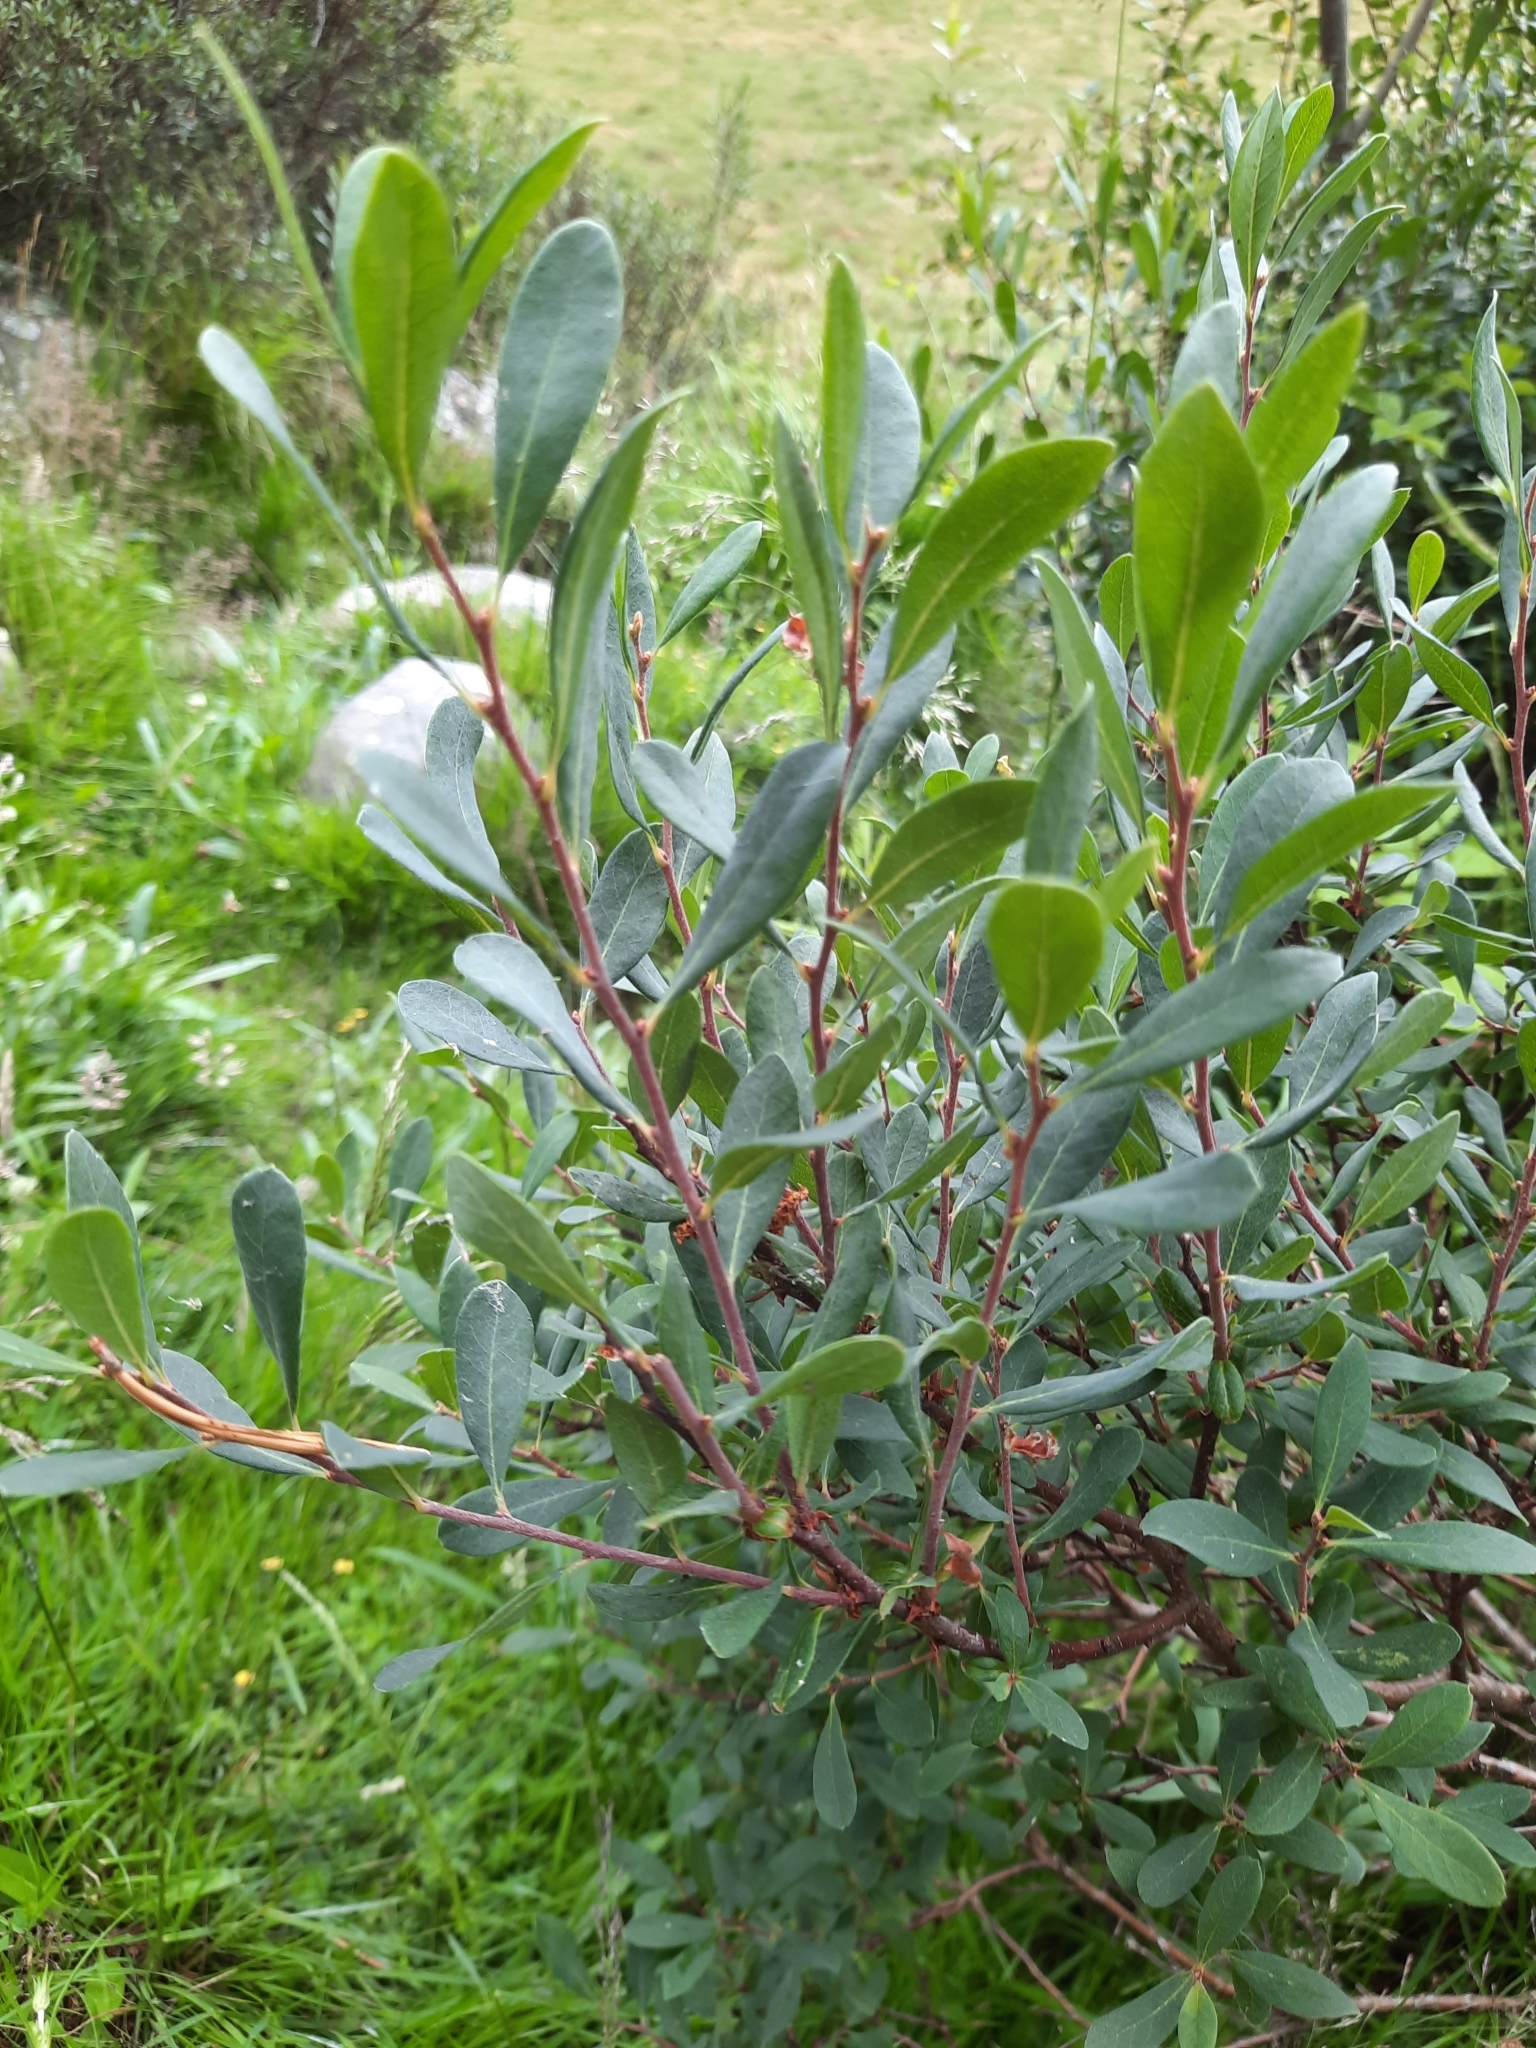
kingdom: Plantae
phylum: Tracheophyta
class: Magnoliopsida
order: Fagales
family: Myricaceae
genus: Myrica
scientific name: Myrica gale
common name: Sweet gale
